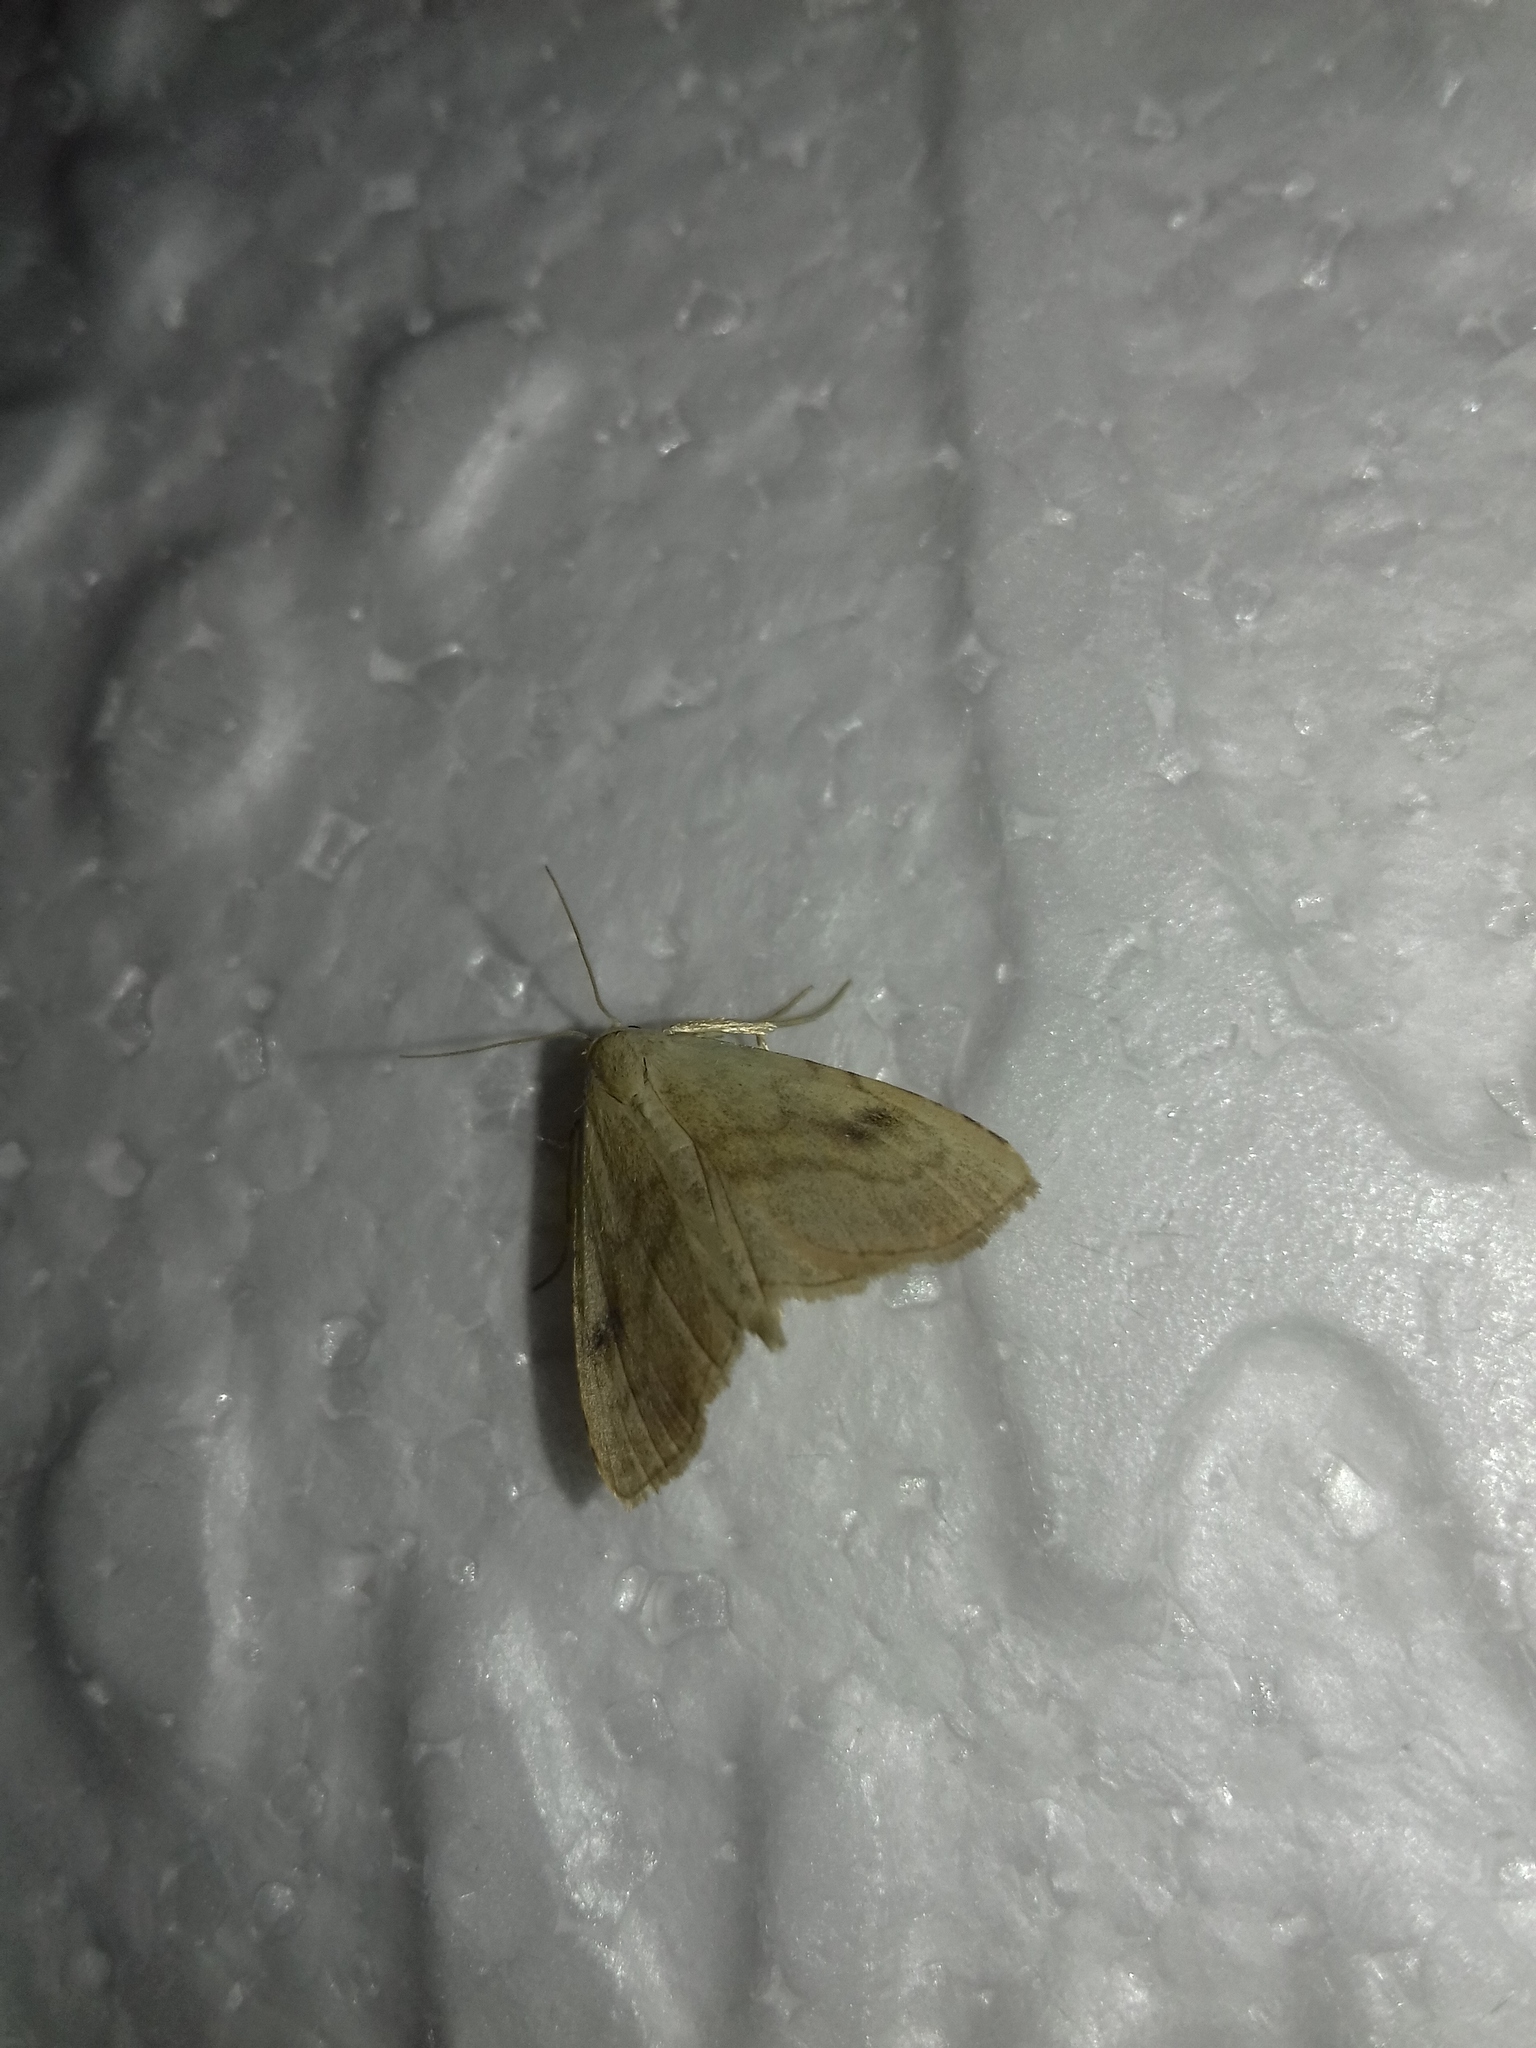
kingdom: Animalia
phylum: Arthropoda
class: Insecta
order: Lepidoptera
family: Erebidae
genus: Rivula
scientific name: Rivula sericealis
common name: Straw dot
